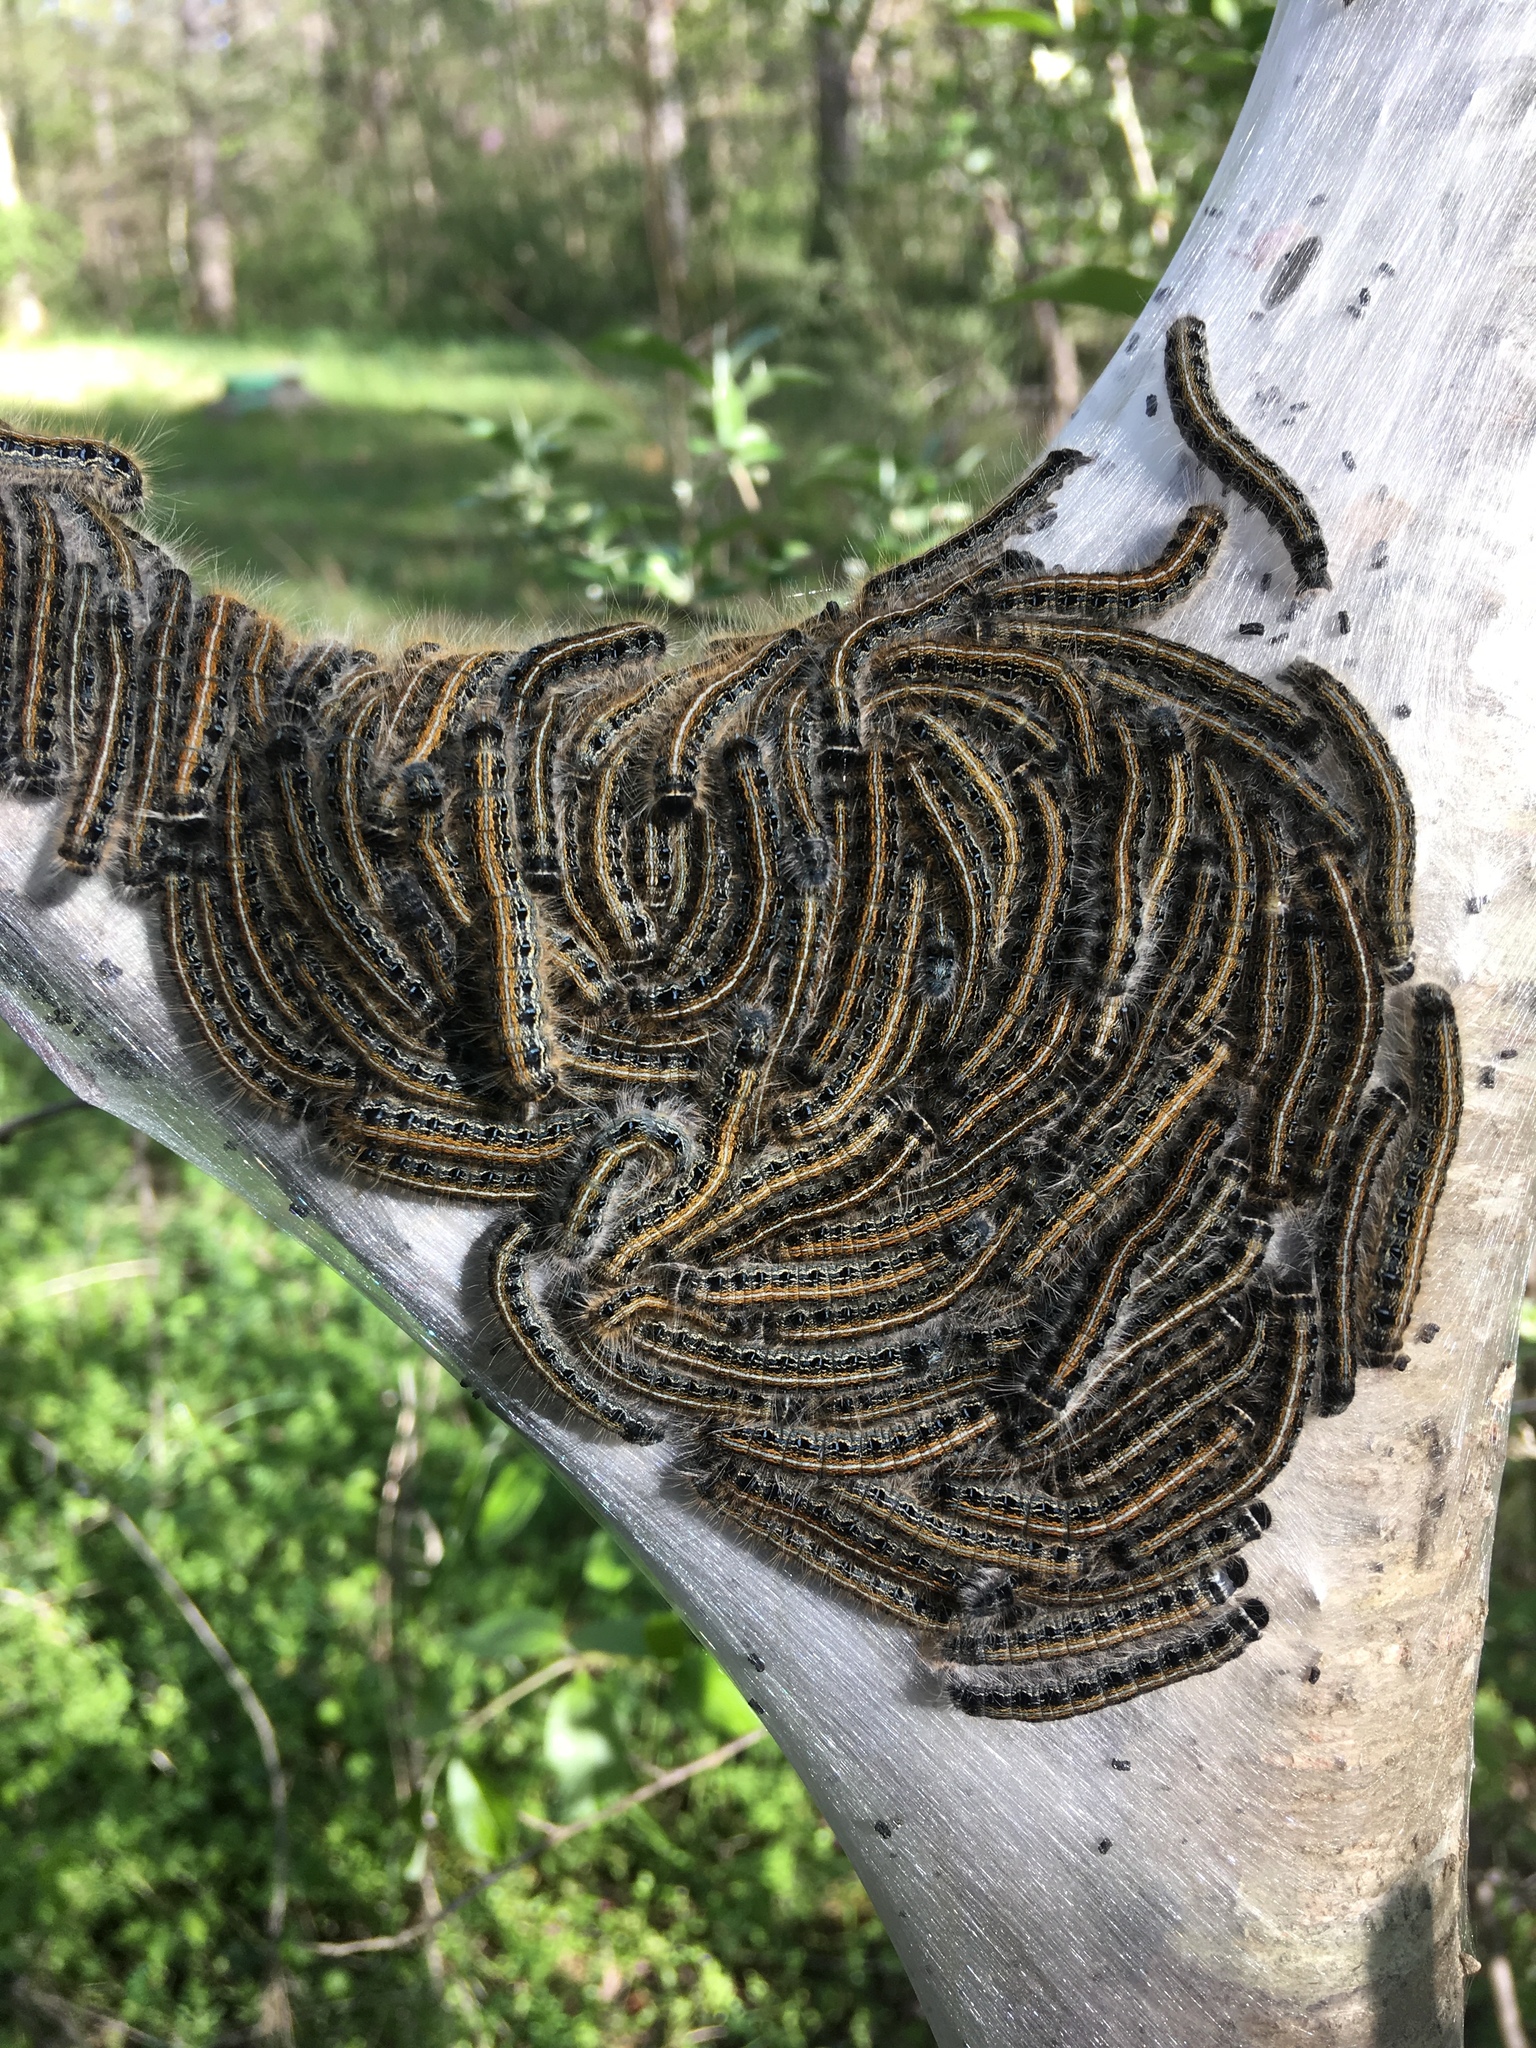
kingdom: Animalia
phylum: Arthropoda
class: Insecta
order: Lepidoptera
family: Lasiocampidae
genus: Malacosoma
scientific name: Malacosoma americana
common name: Eastern tent caterpillar moth
